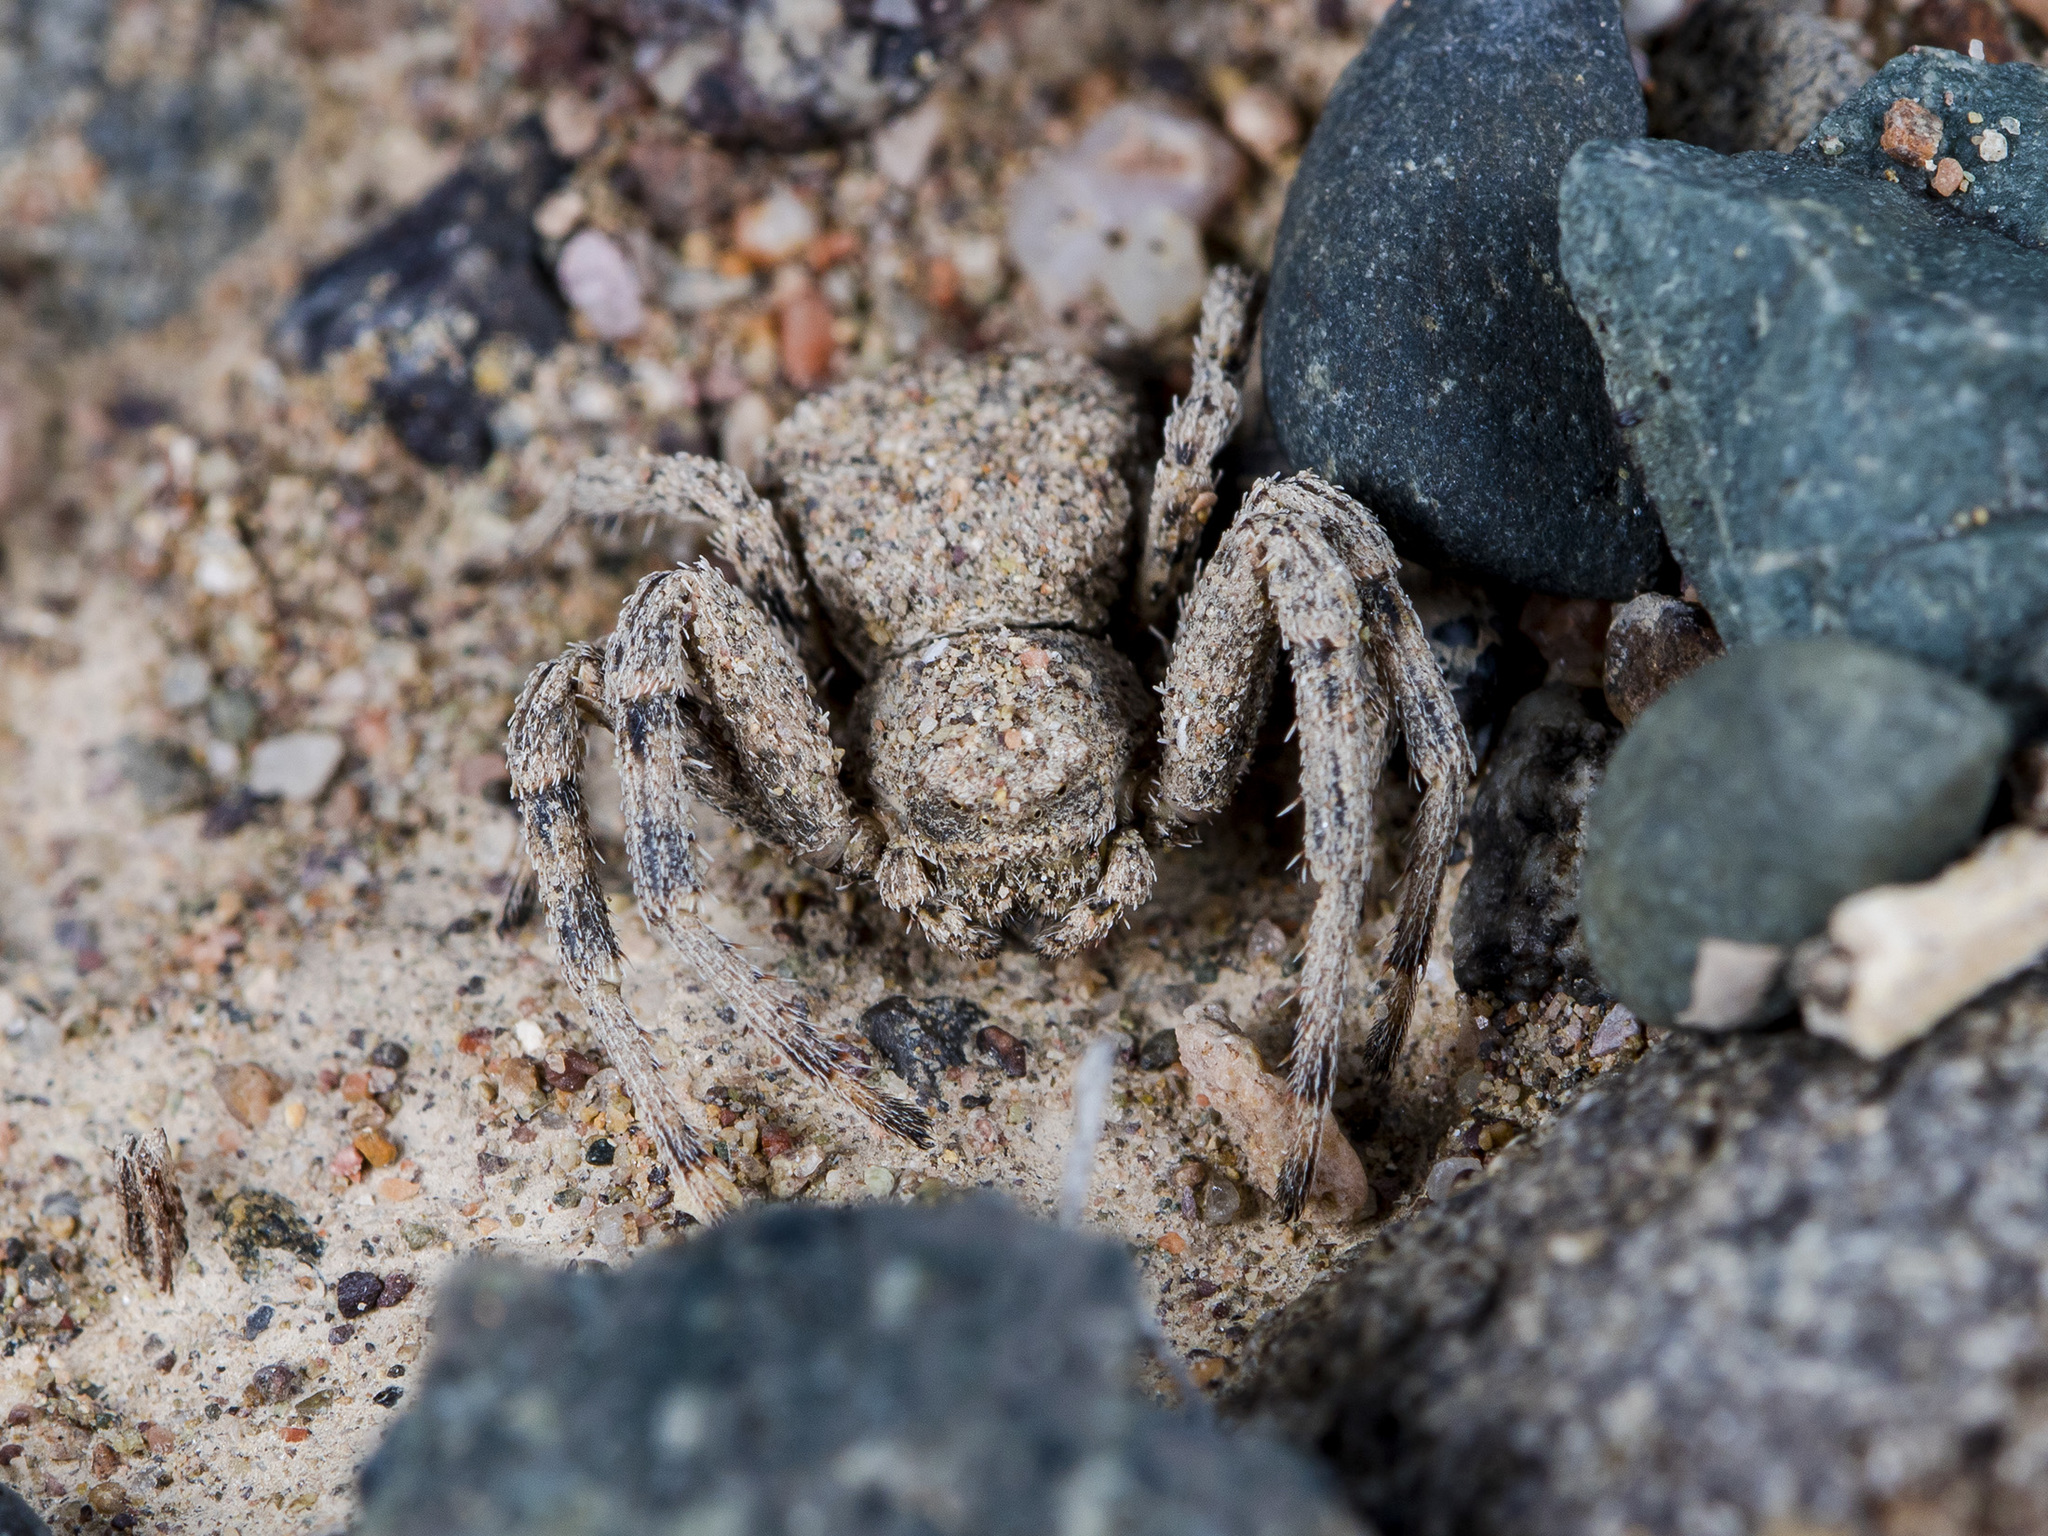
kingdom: Animalia
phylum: Arthropoda
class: Arachnida
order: Araneae
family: Thomisidae
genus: Ozyptila
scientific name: Ozyptila lugubris
